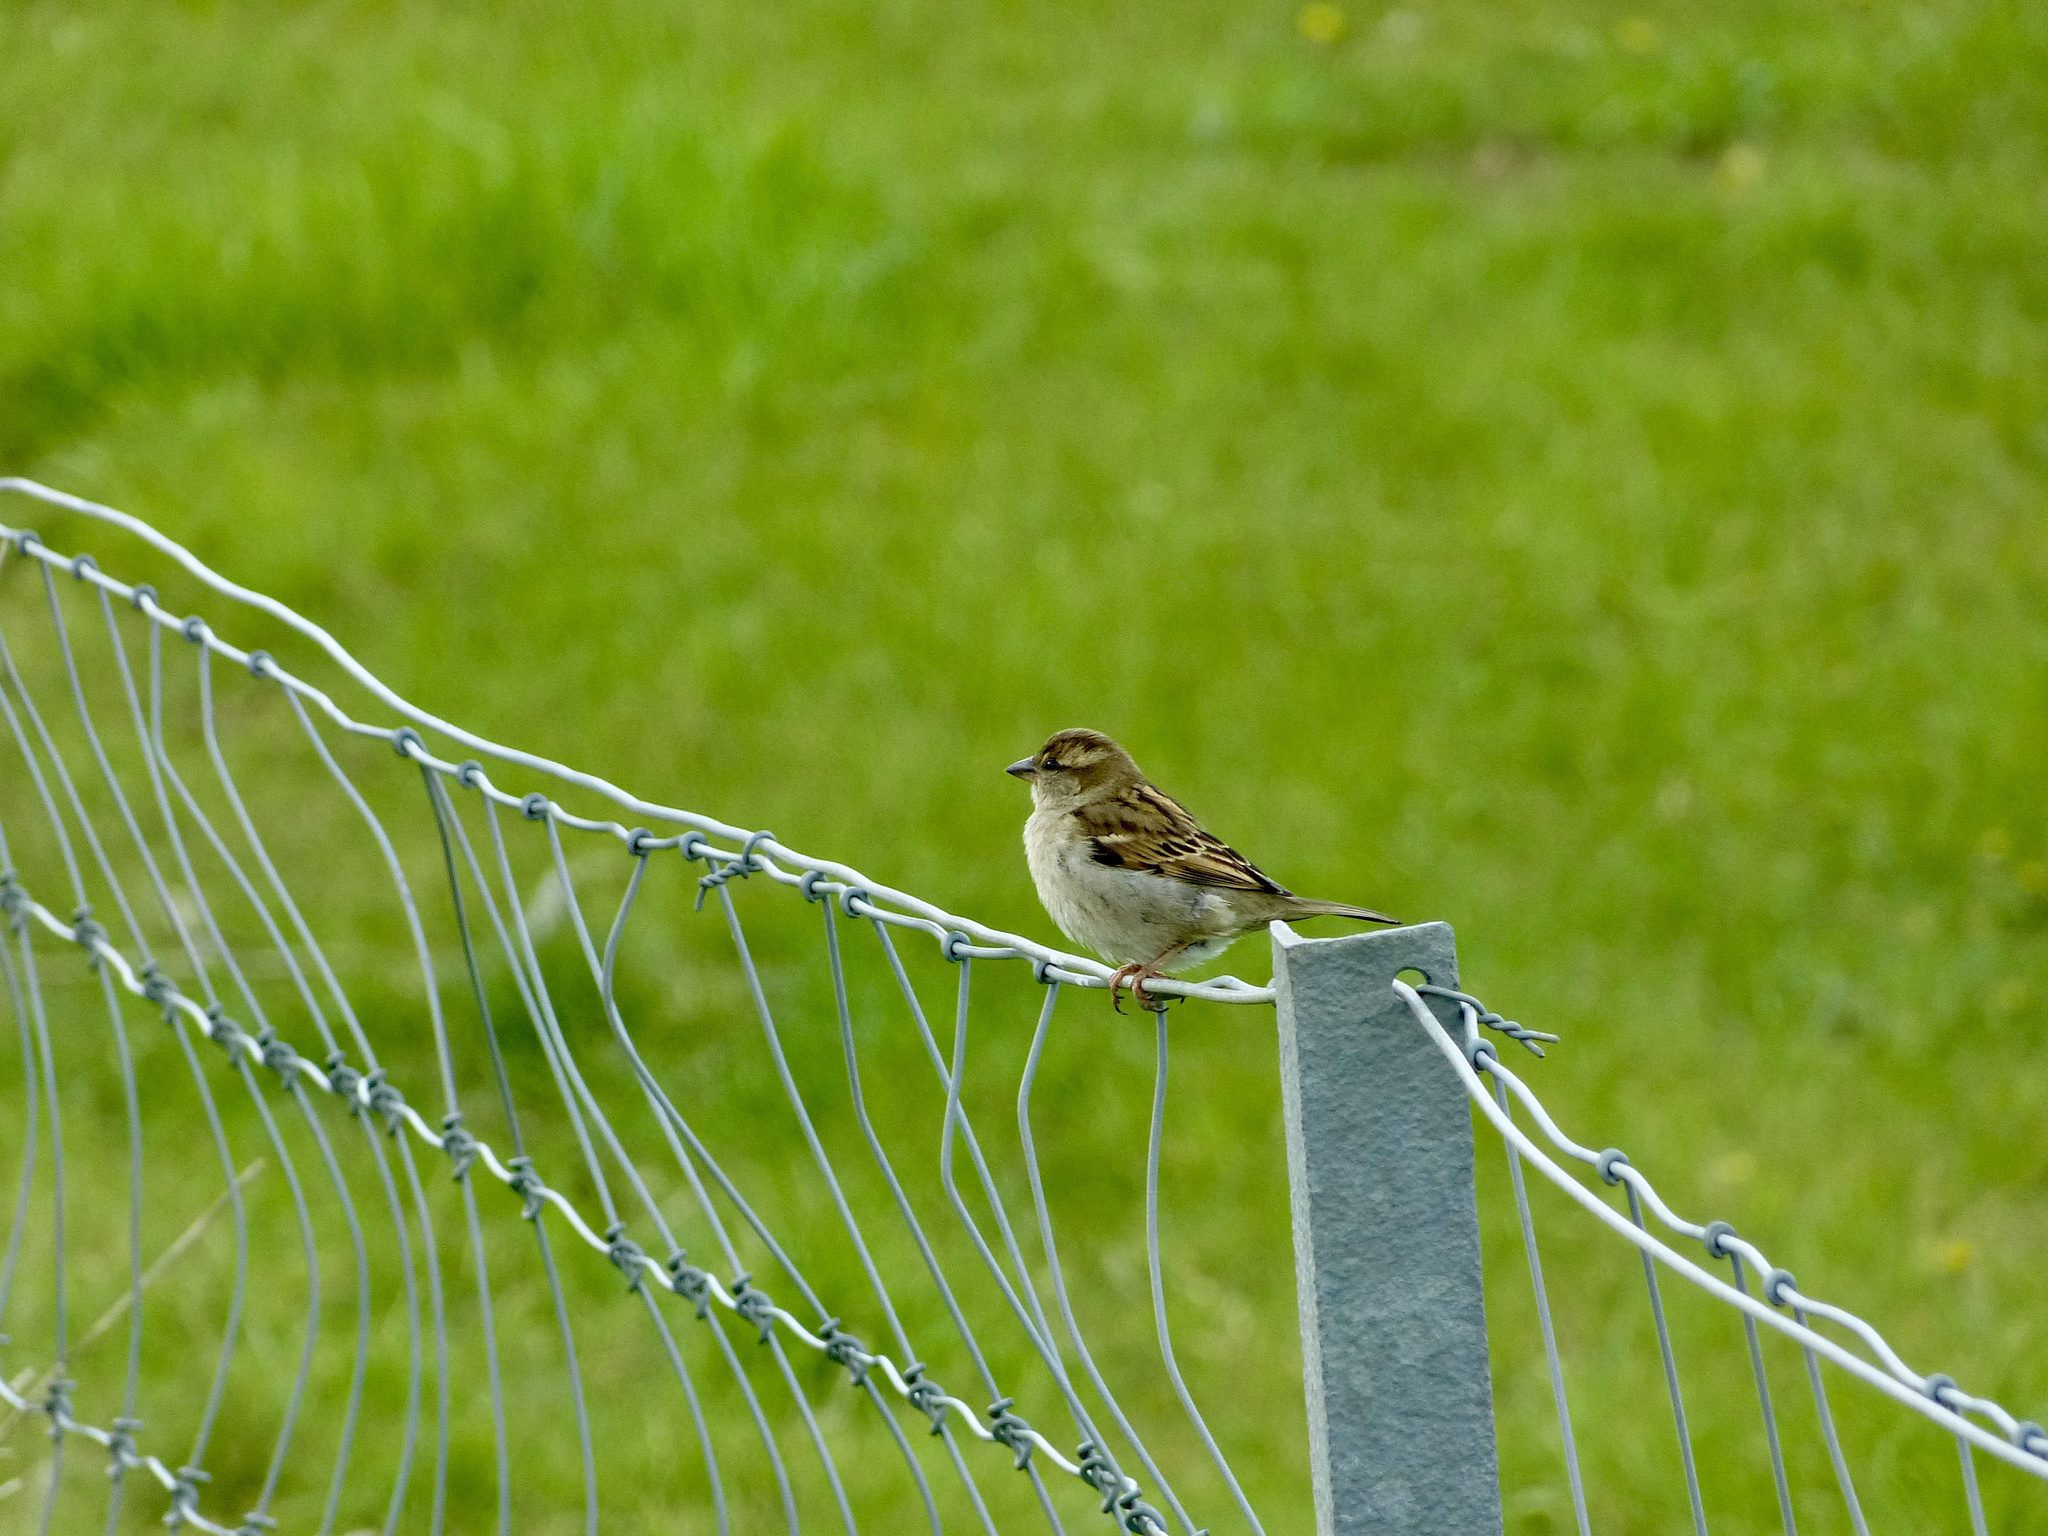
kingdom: Animalia
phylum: Chordata
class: Aves
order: Passeriformes
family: Passeridae
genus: Passer
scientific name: Passer domesticus
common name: House sparrow
